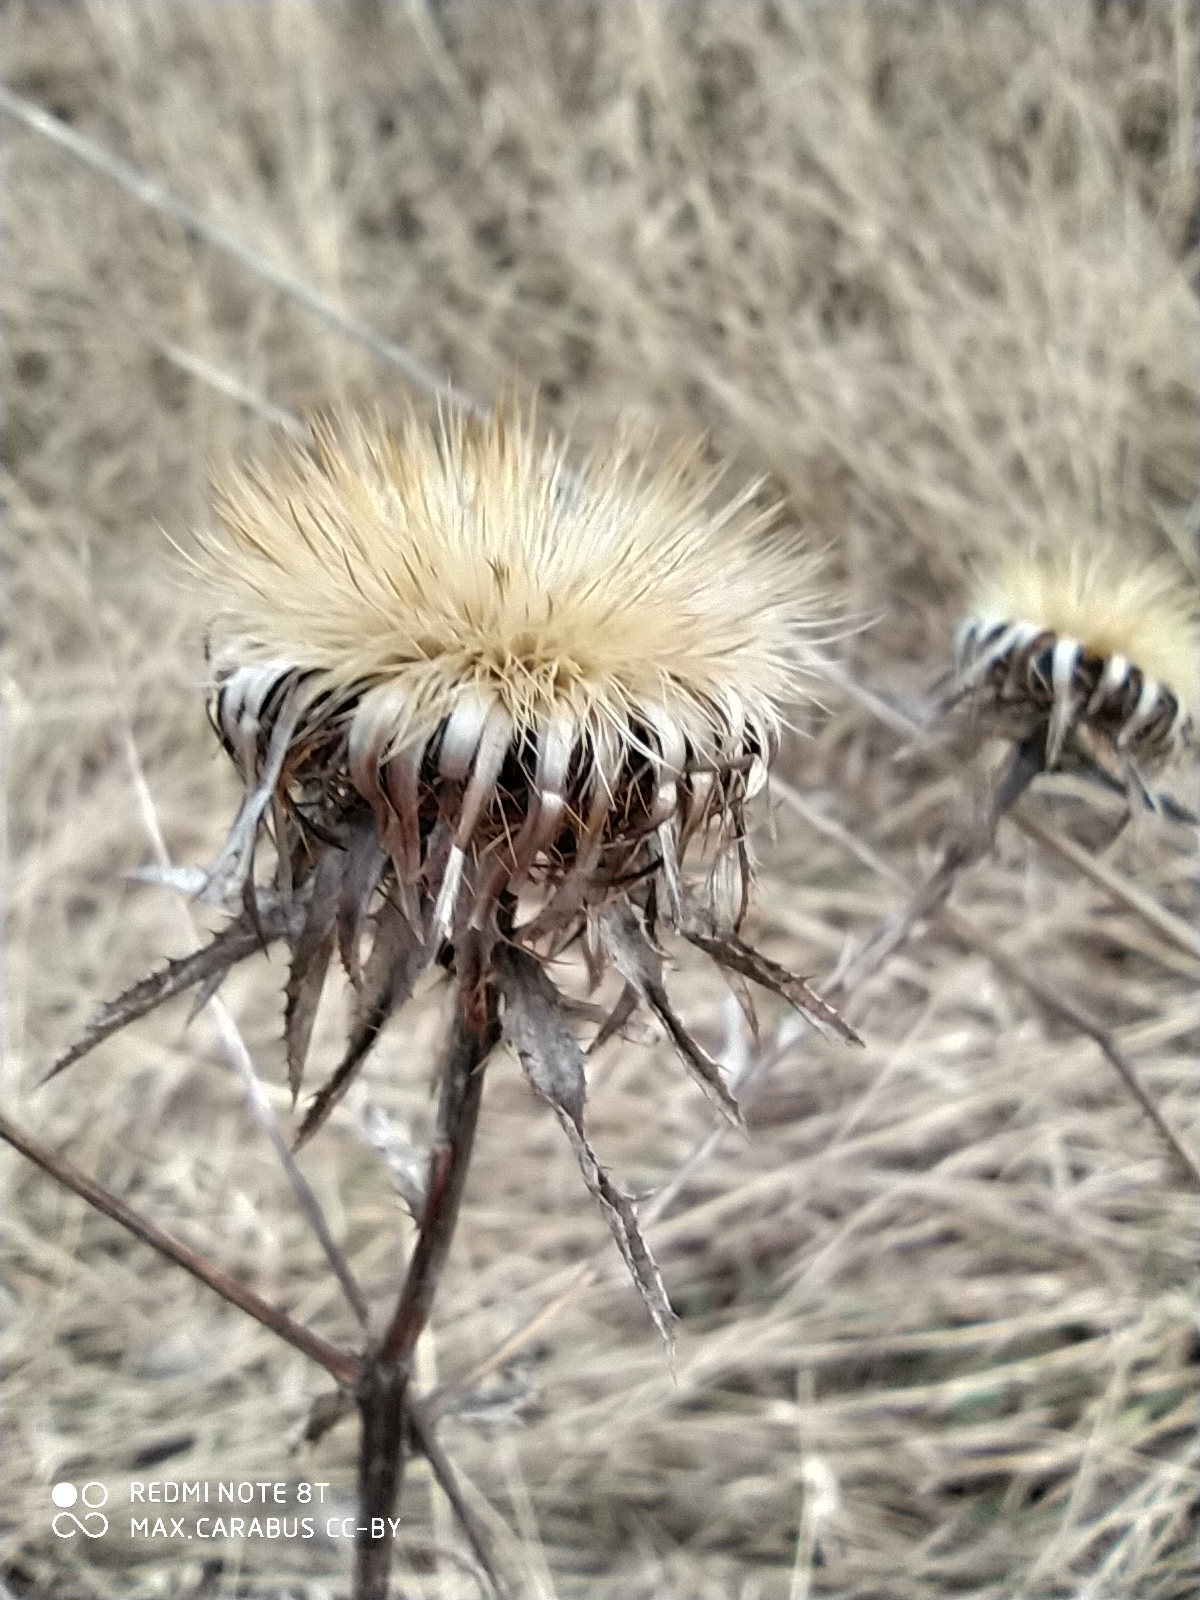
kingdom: Plantae
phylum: Tracheophyta
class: Magnoliopsida
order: Asterales
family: Asteraceae
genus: Carlina
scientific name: Carlina biebersteinii
